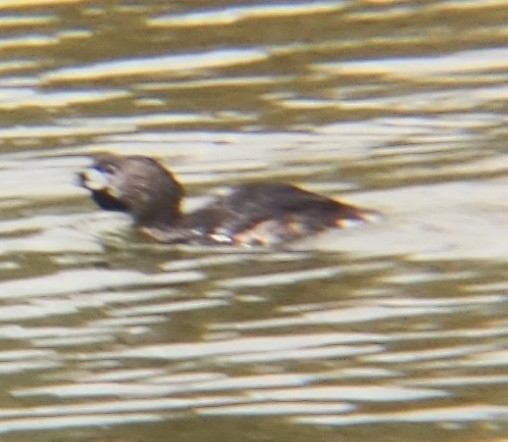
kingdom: Animalia
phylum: Chordata
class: Aves
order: Podicipediformes
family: Podicipedidae
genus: Podilymbus
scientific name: Podilymbus podiceps
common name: Pied-billed grebe
